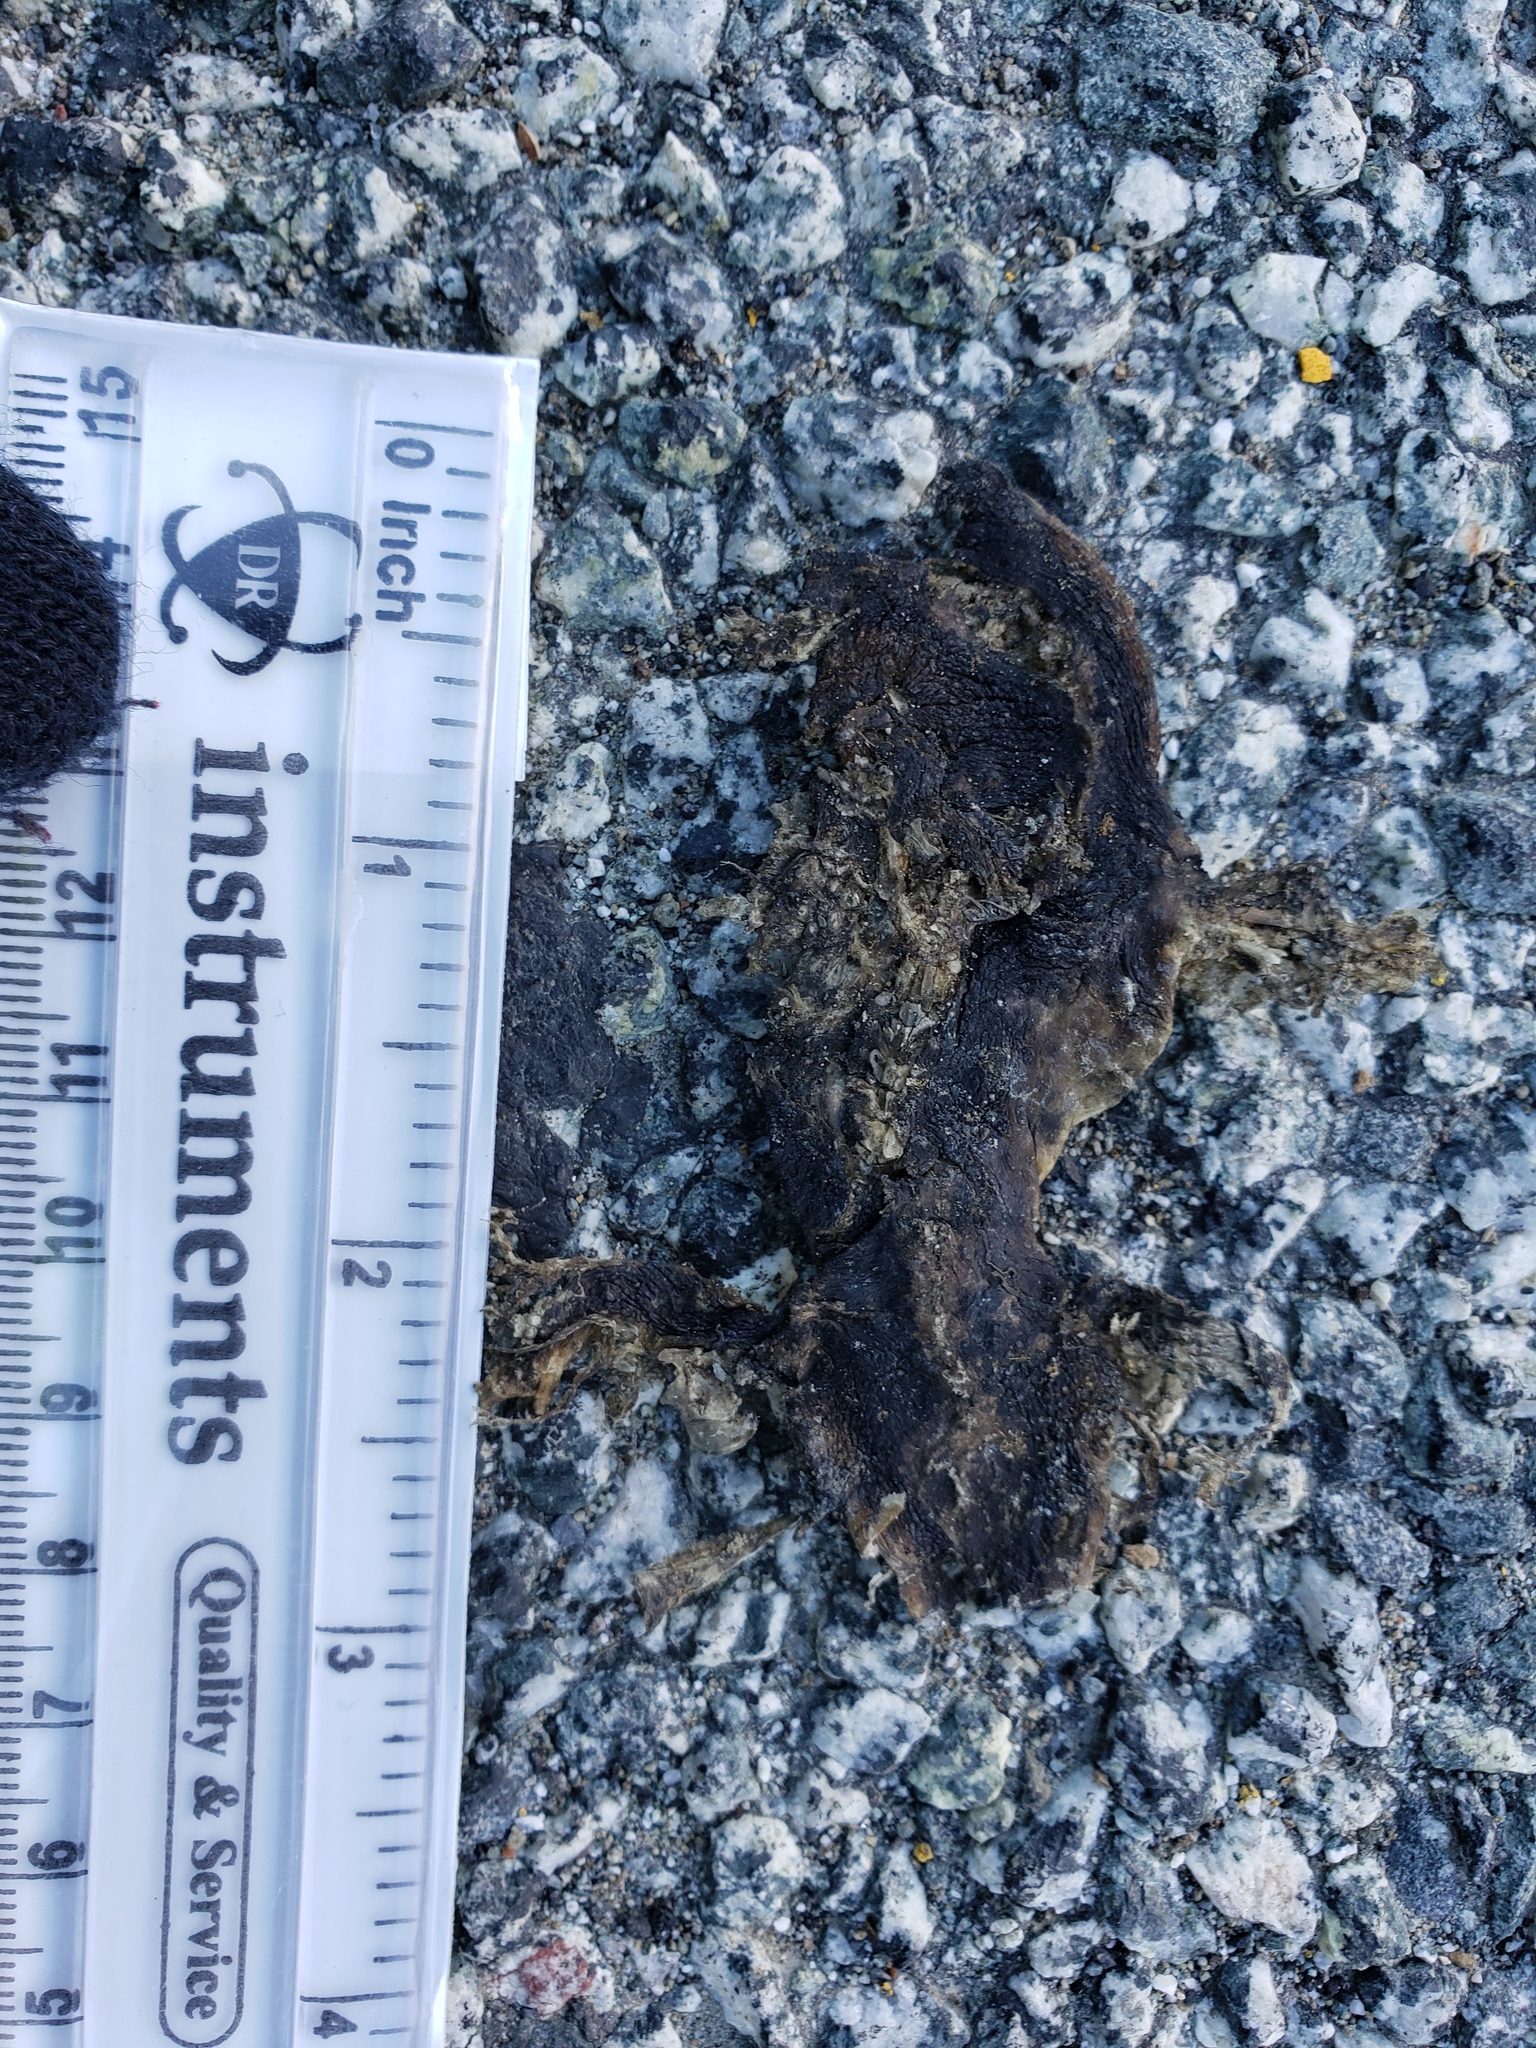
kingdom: Animalia
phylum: Chordata
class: Amphibia
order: Caudata
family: Salamandridae
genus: Taricha
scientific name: Taricha
